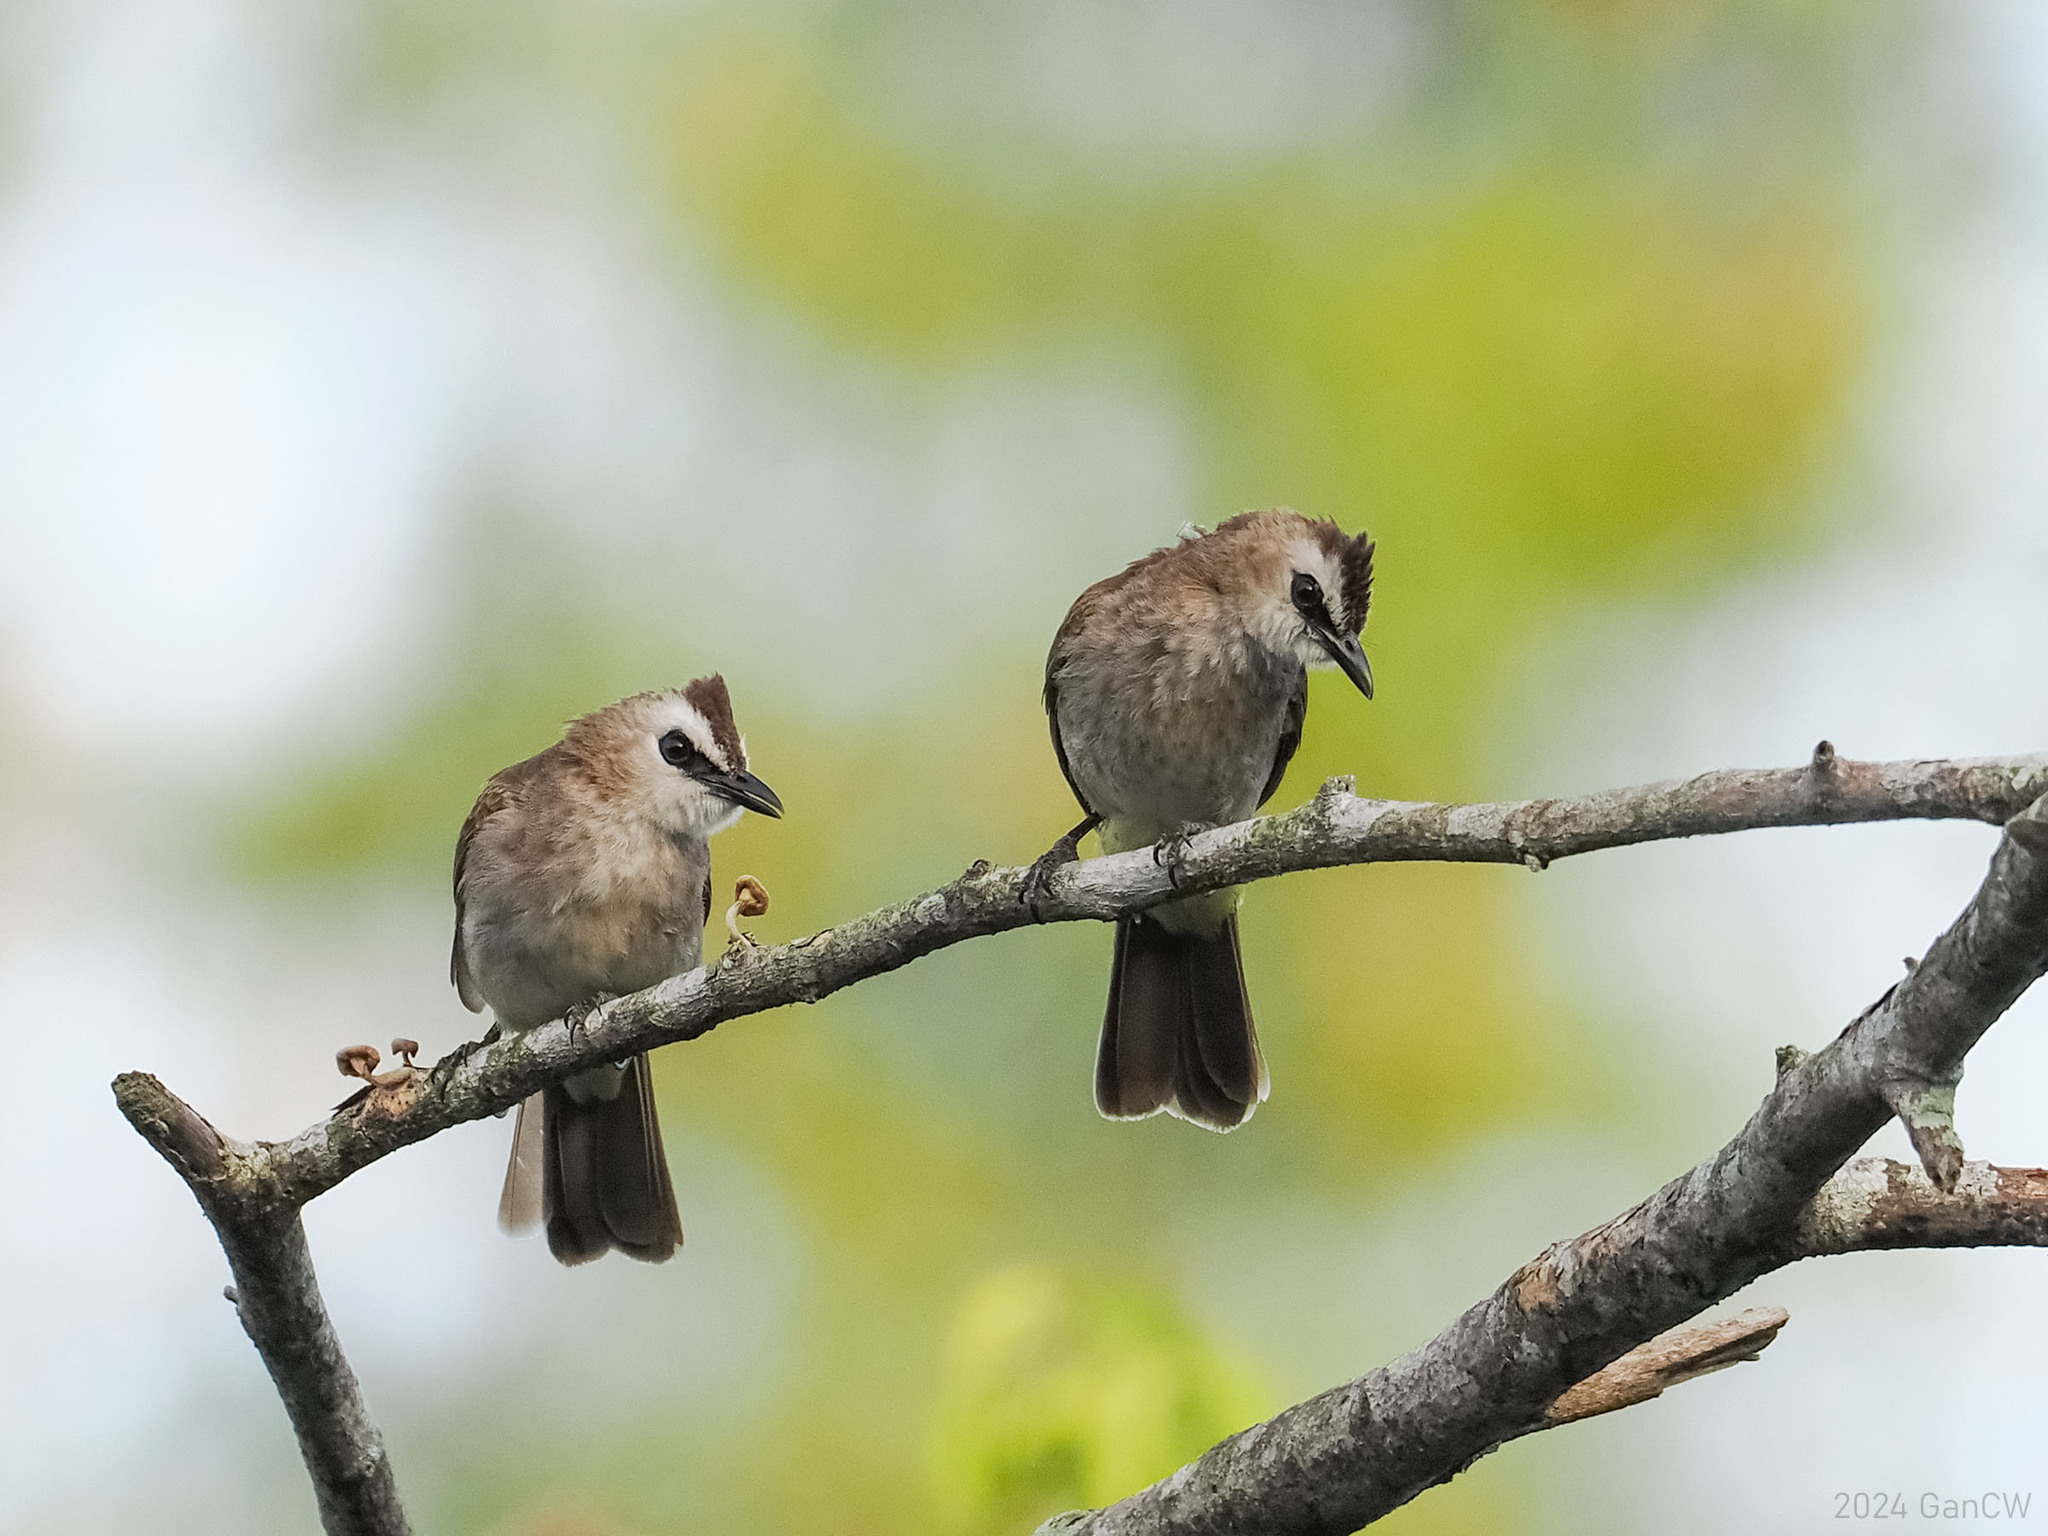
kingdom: Animalia
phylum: Chordata
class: Aves
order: Passeriformes
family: Pycnonotidae
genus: Pycnonotus
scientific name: Pycnonotus goiavier
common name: Yellow-vented bulbul
